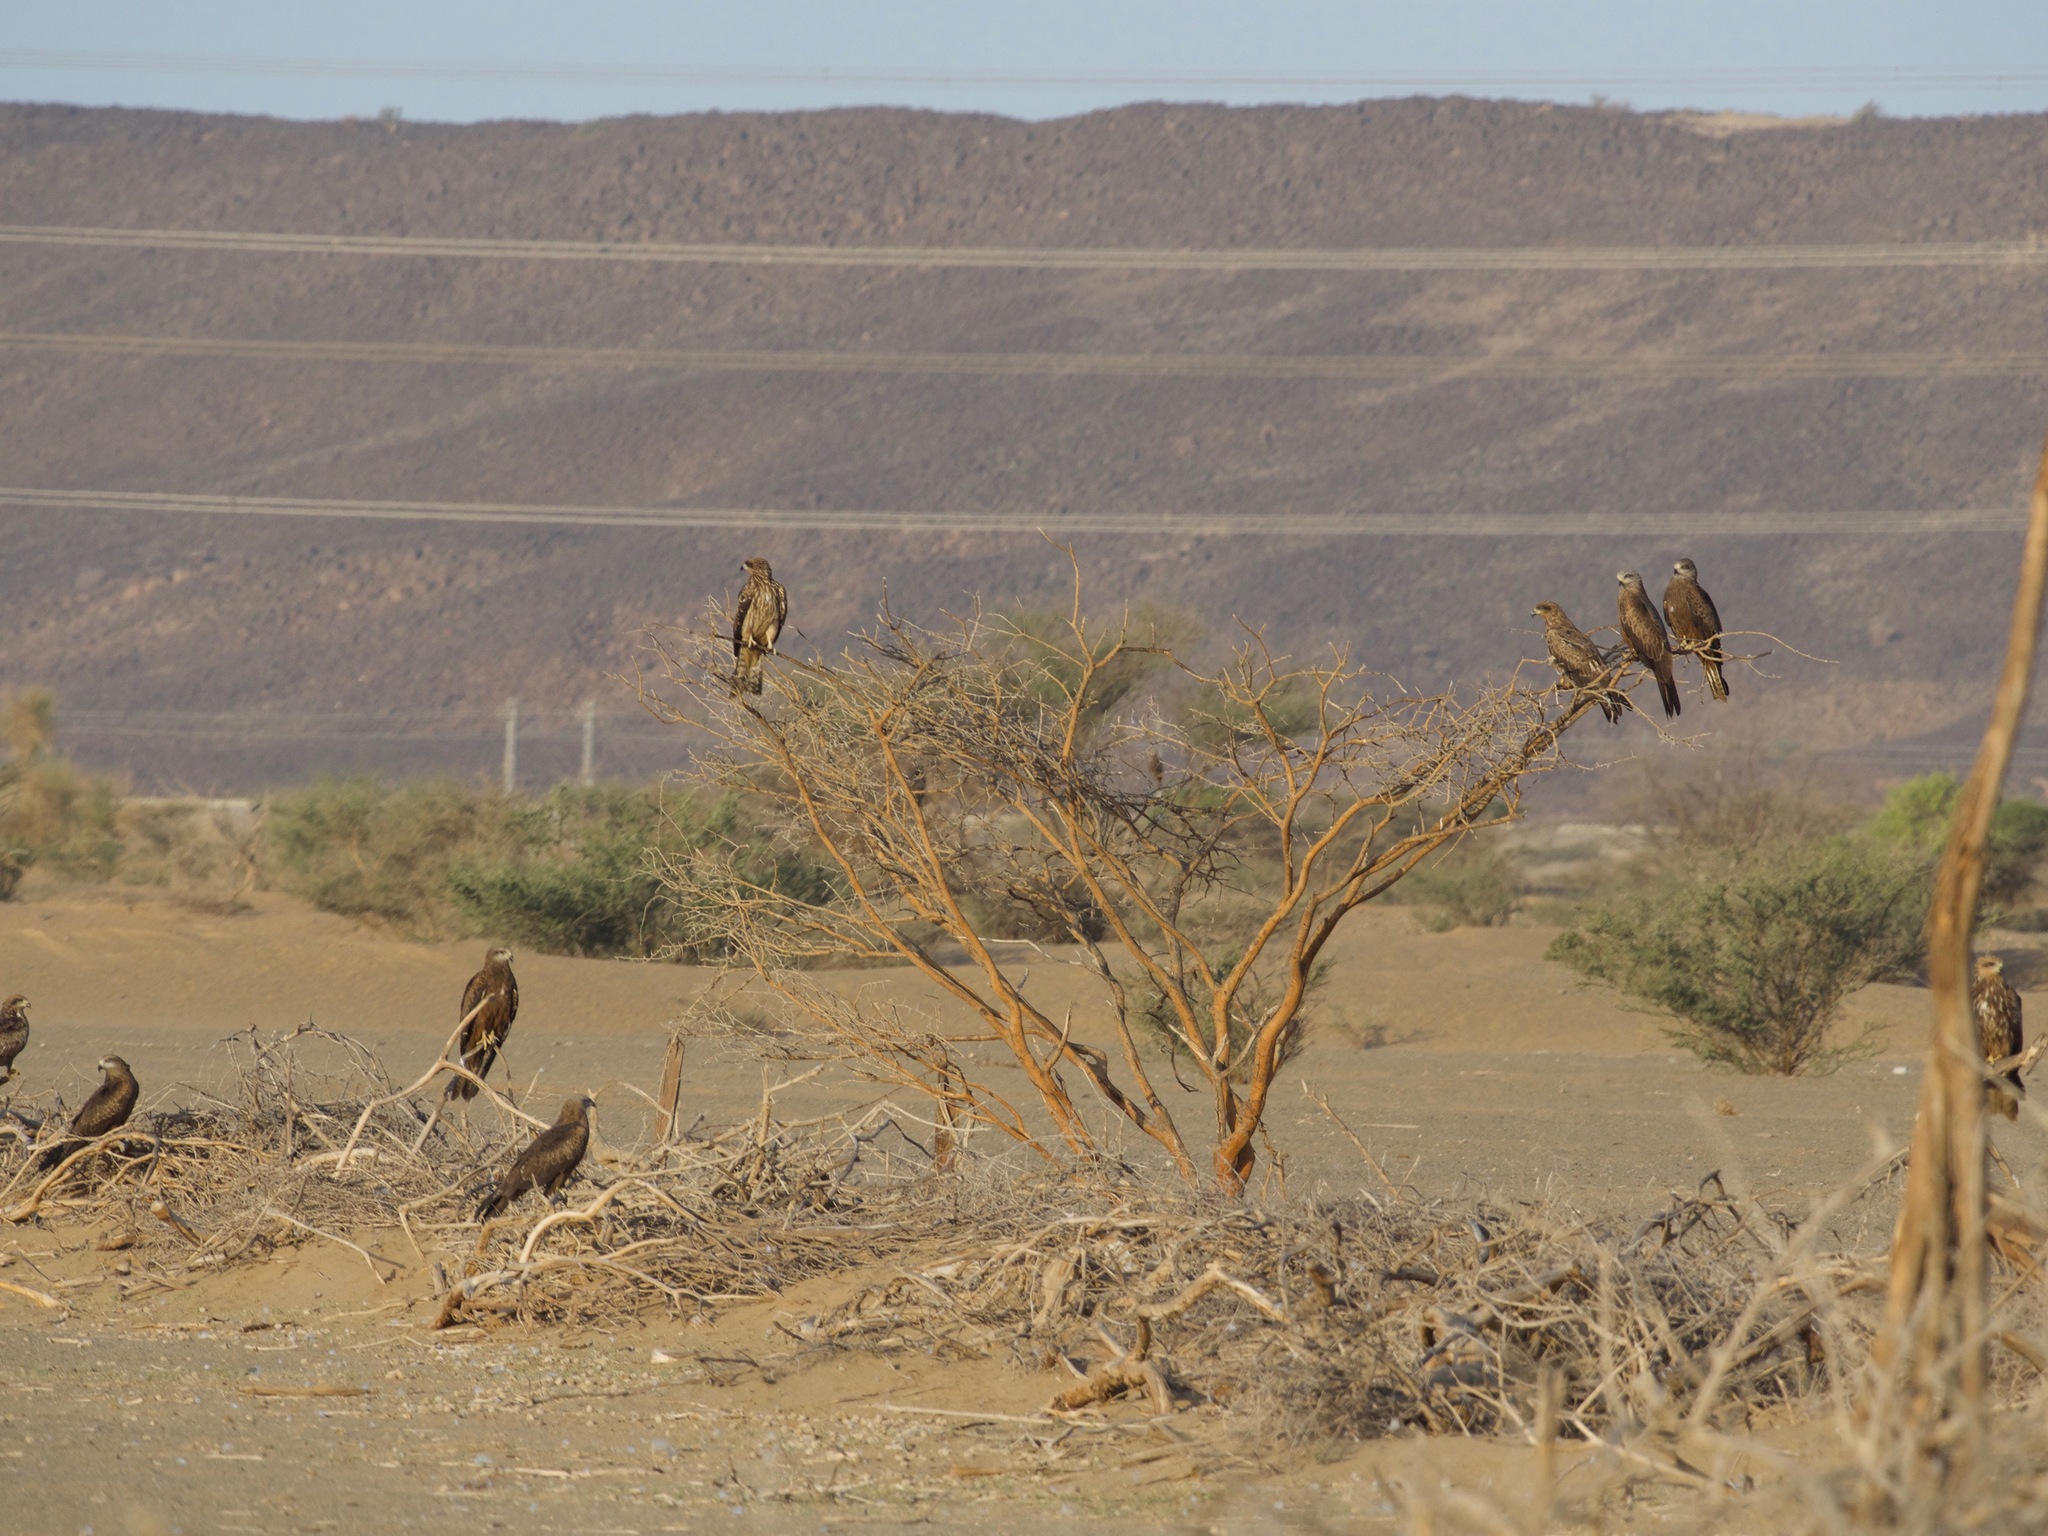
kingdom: Animalia
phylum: Chordata
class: Aves
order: Accipitriformes
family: Accipitridae
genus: Milvus
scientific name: Milvus migrans
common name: Black kite
